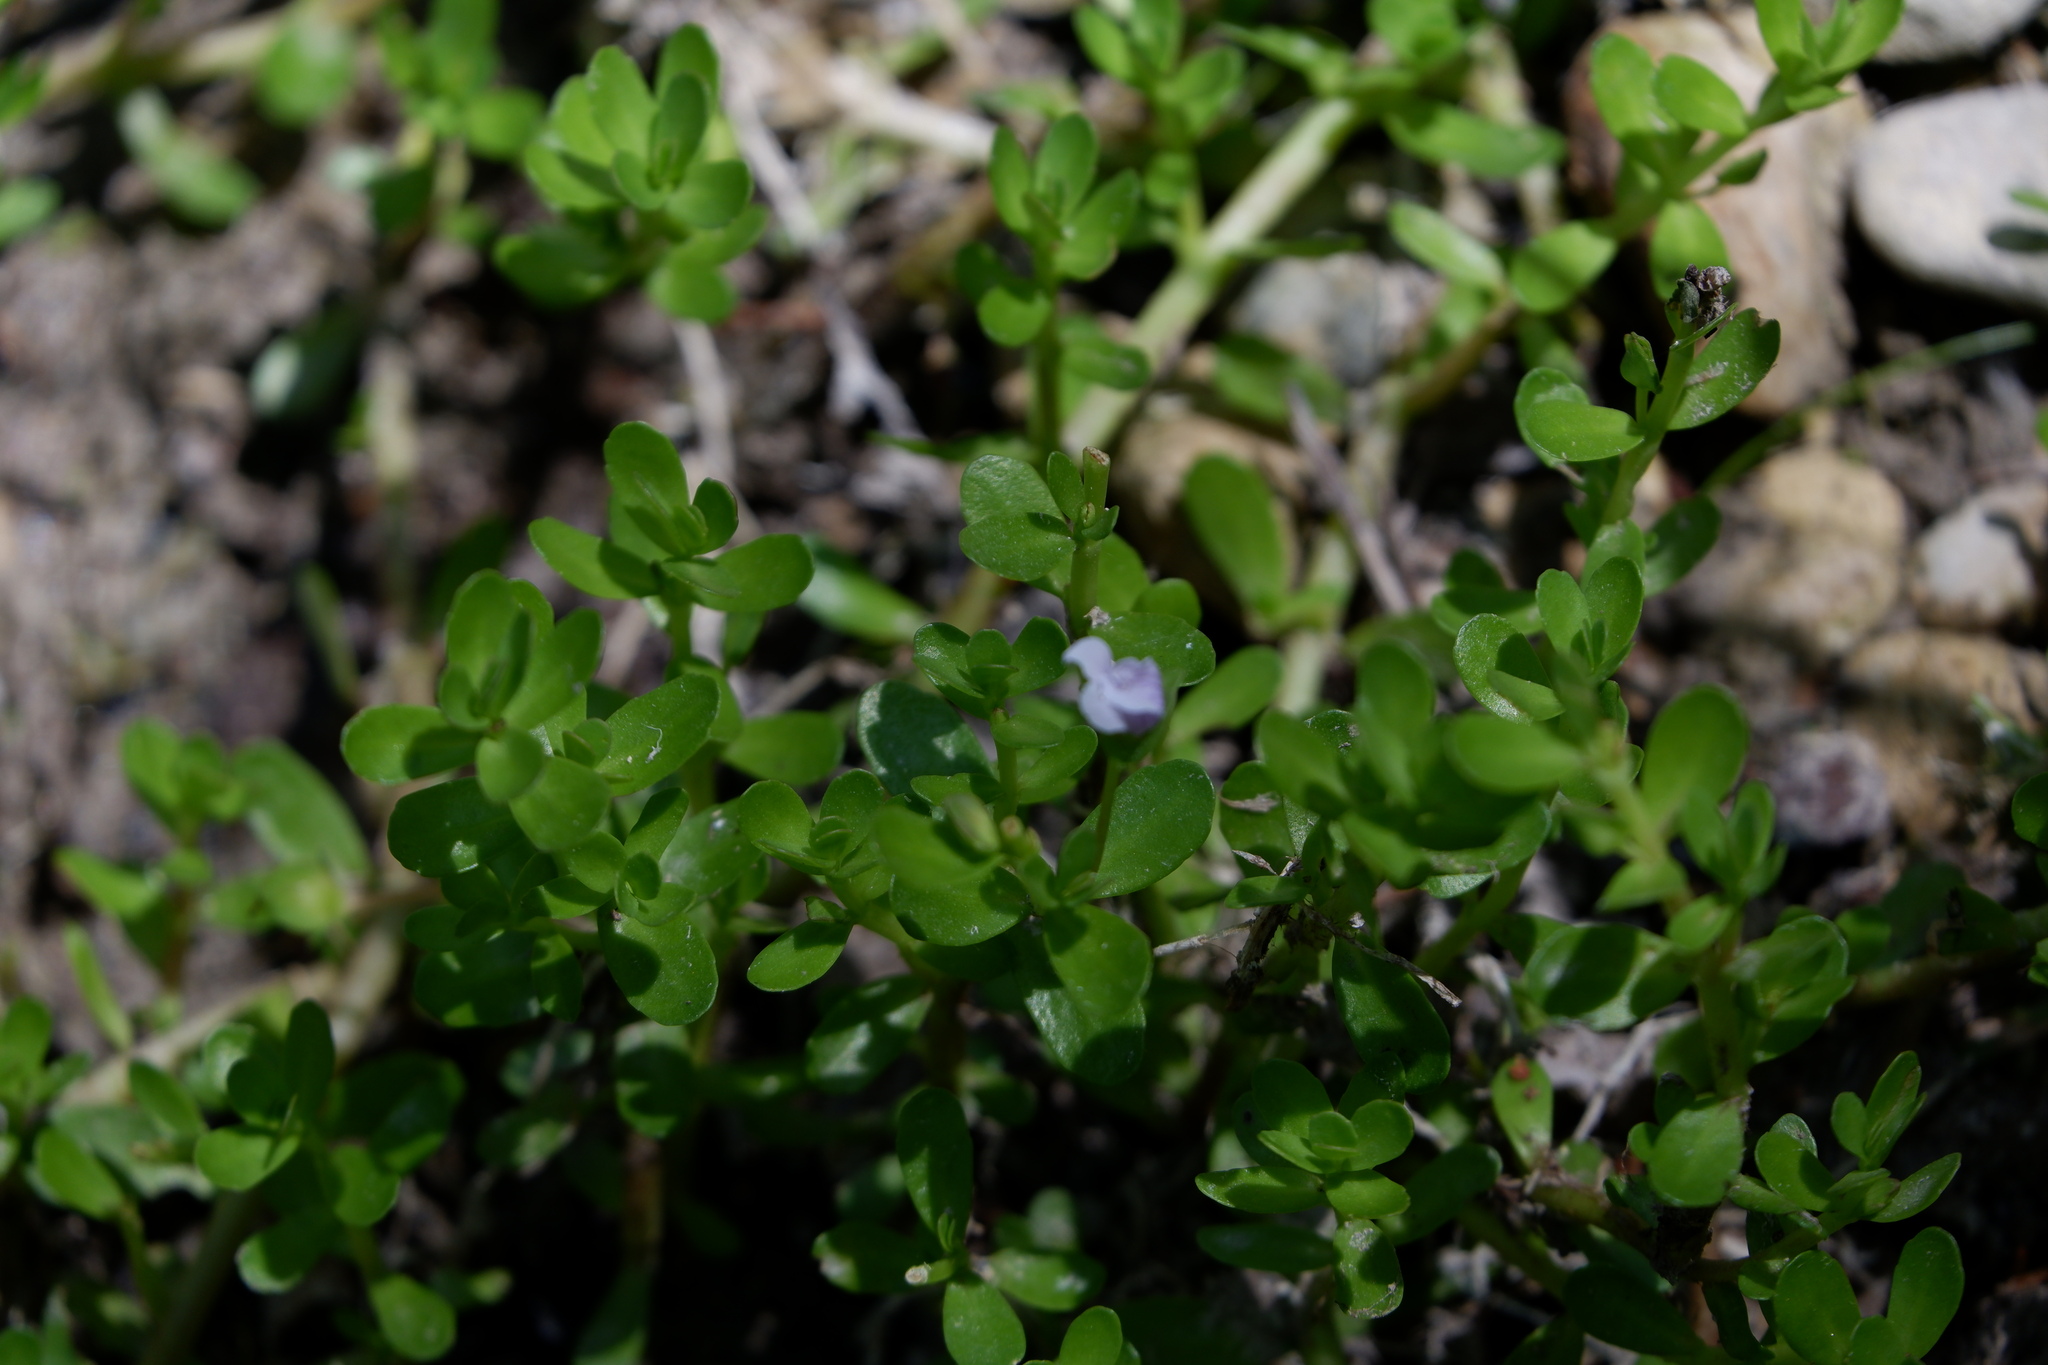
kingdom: Plantae
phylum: Tracheophyta
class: Magnoliopsida
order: Lamiales
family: Plantaginaceae
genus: Bacopa
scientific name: Bacopa monnieri
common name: Indian-pennywort
